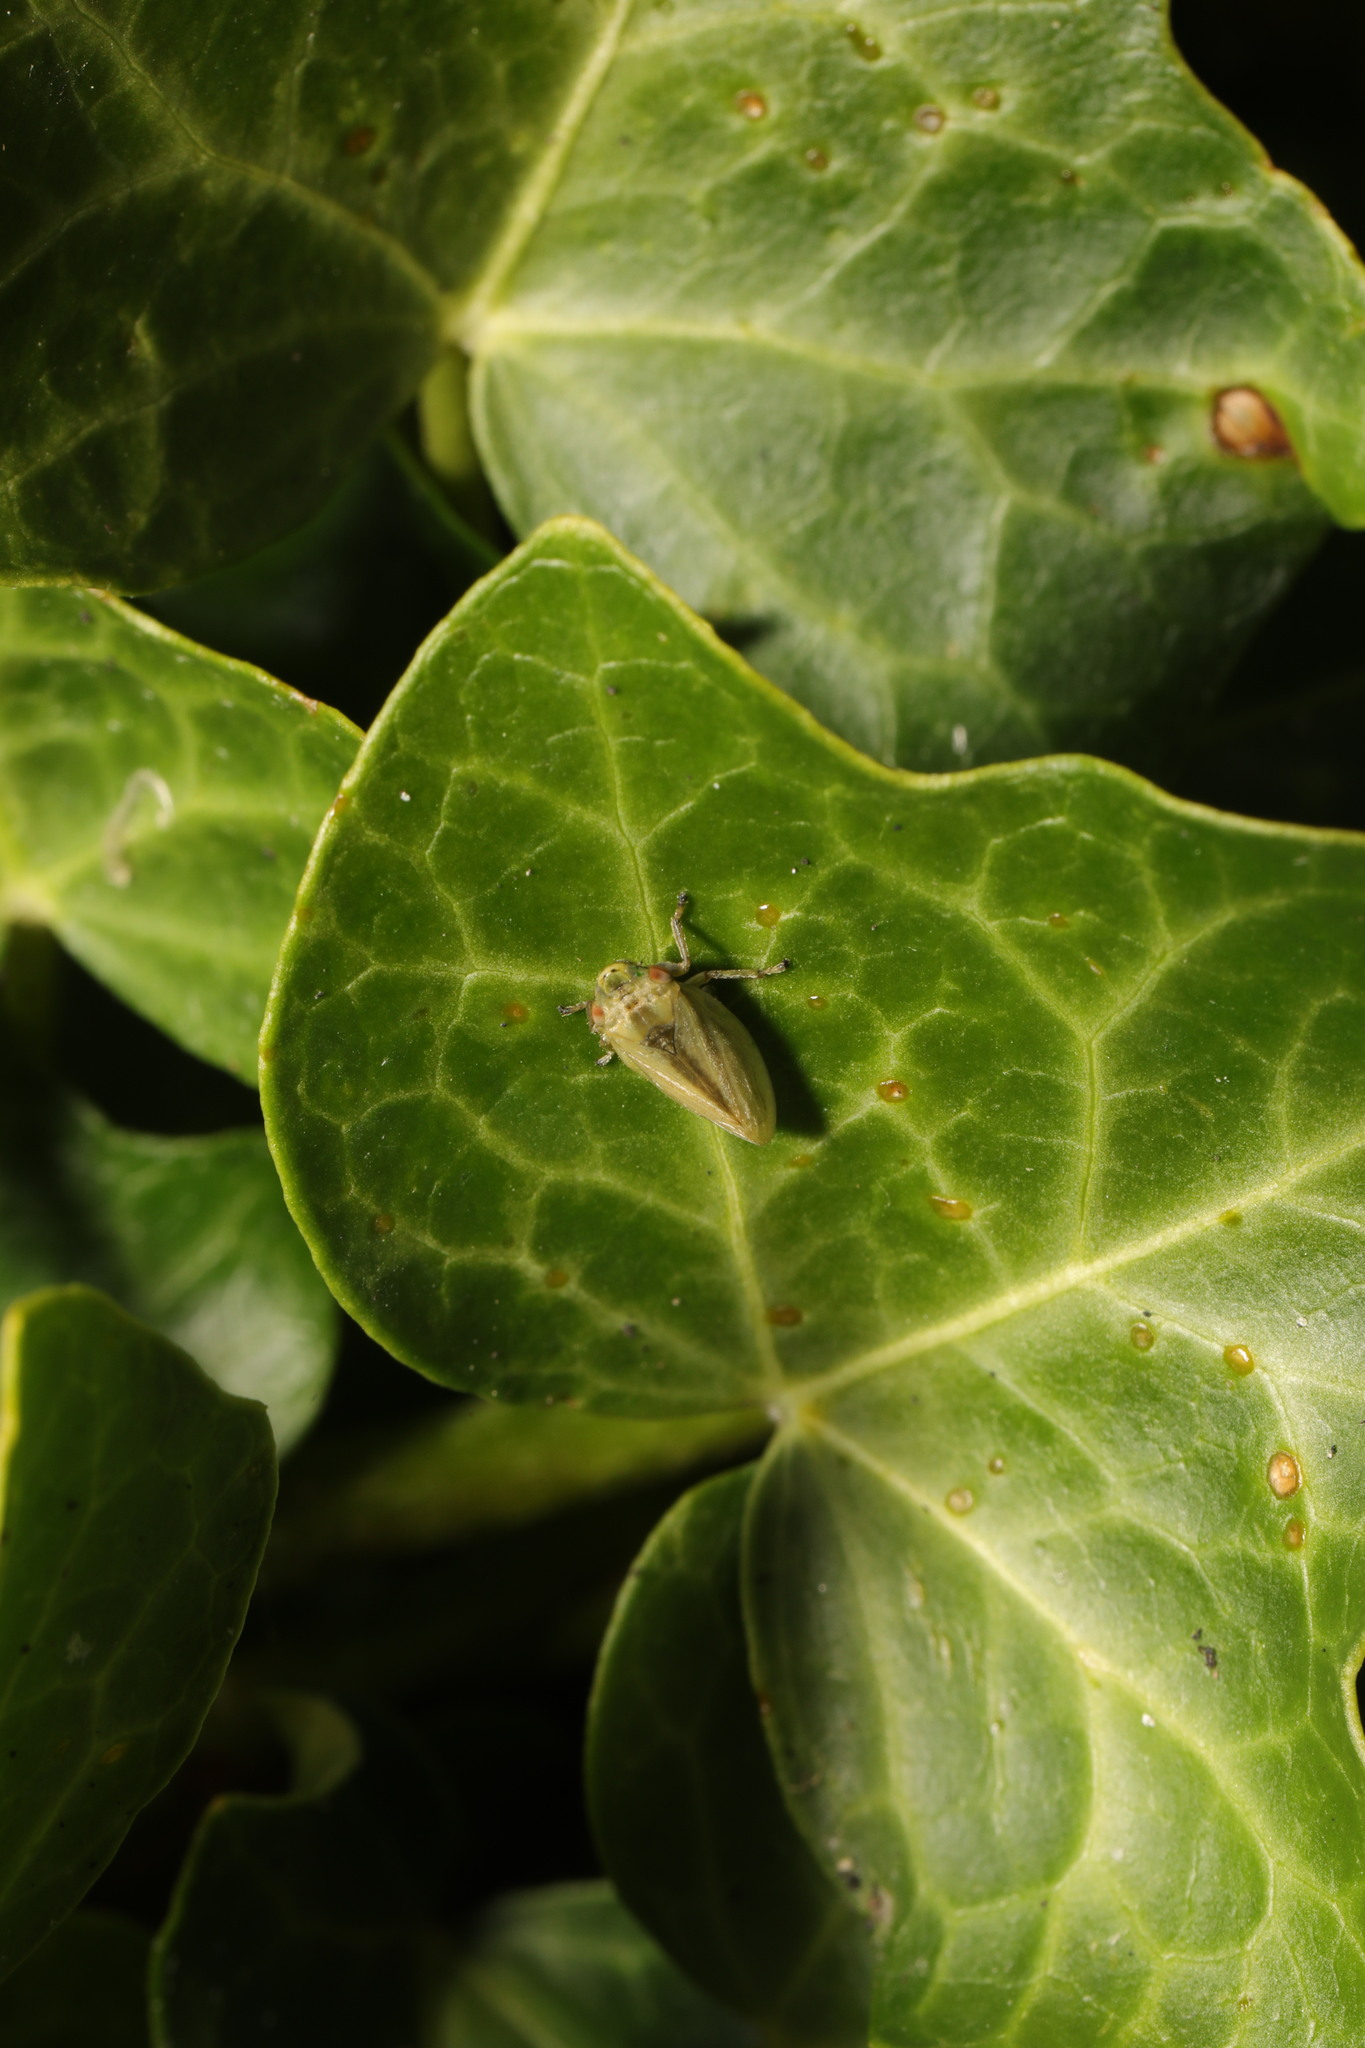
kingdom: Animalia
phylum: Arthropoda
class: Insecta
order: Hemiptera
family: Aphrophoridae
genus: Philaenus
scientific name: Philaenus spumarius
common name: Meadow spittlebug
